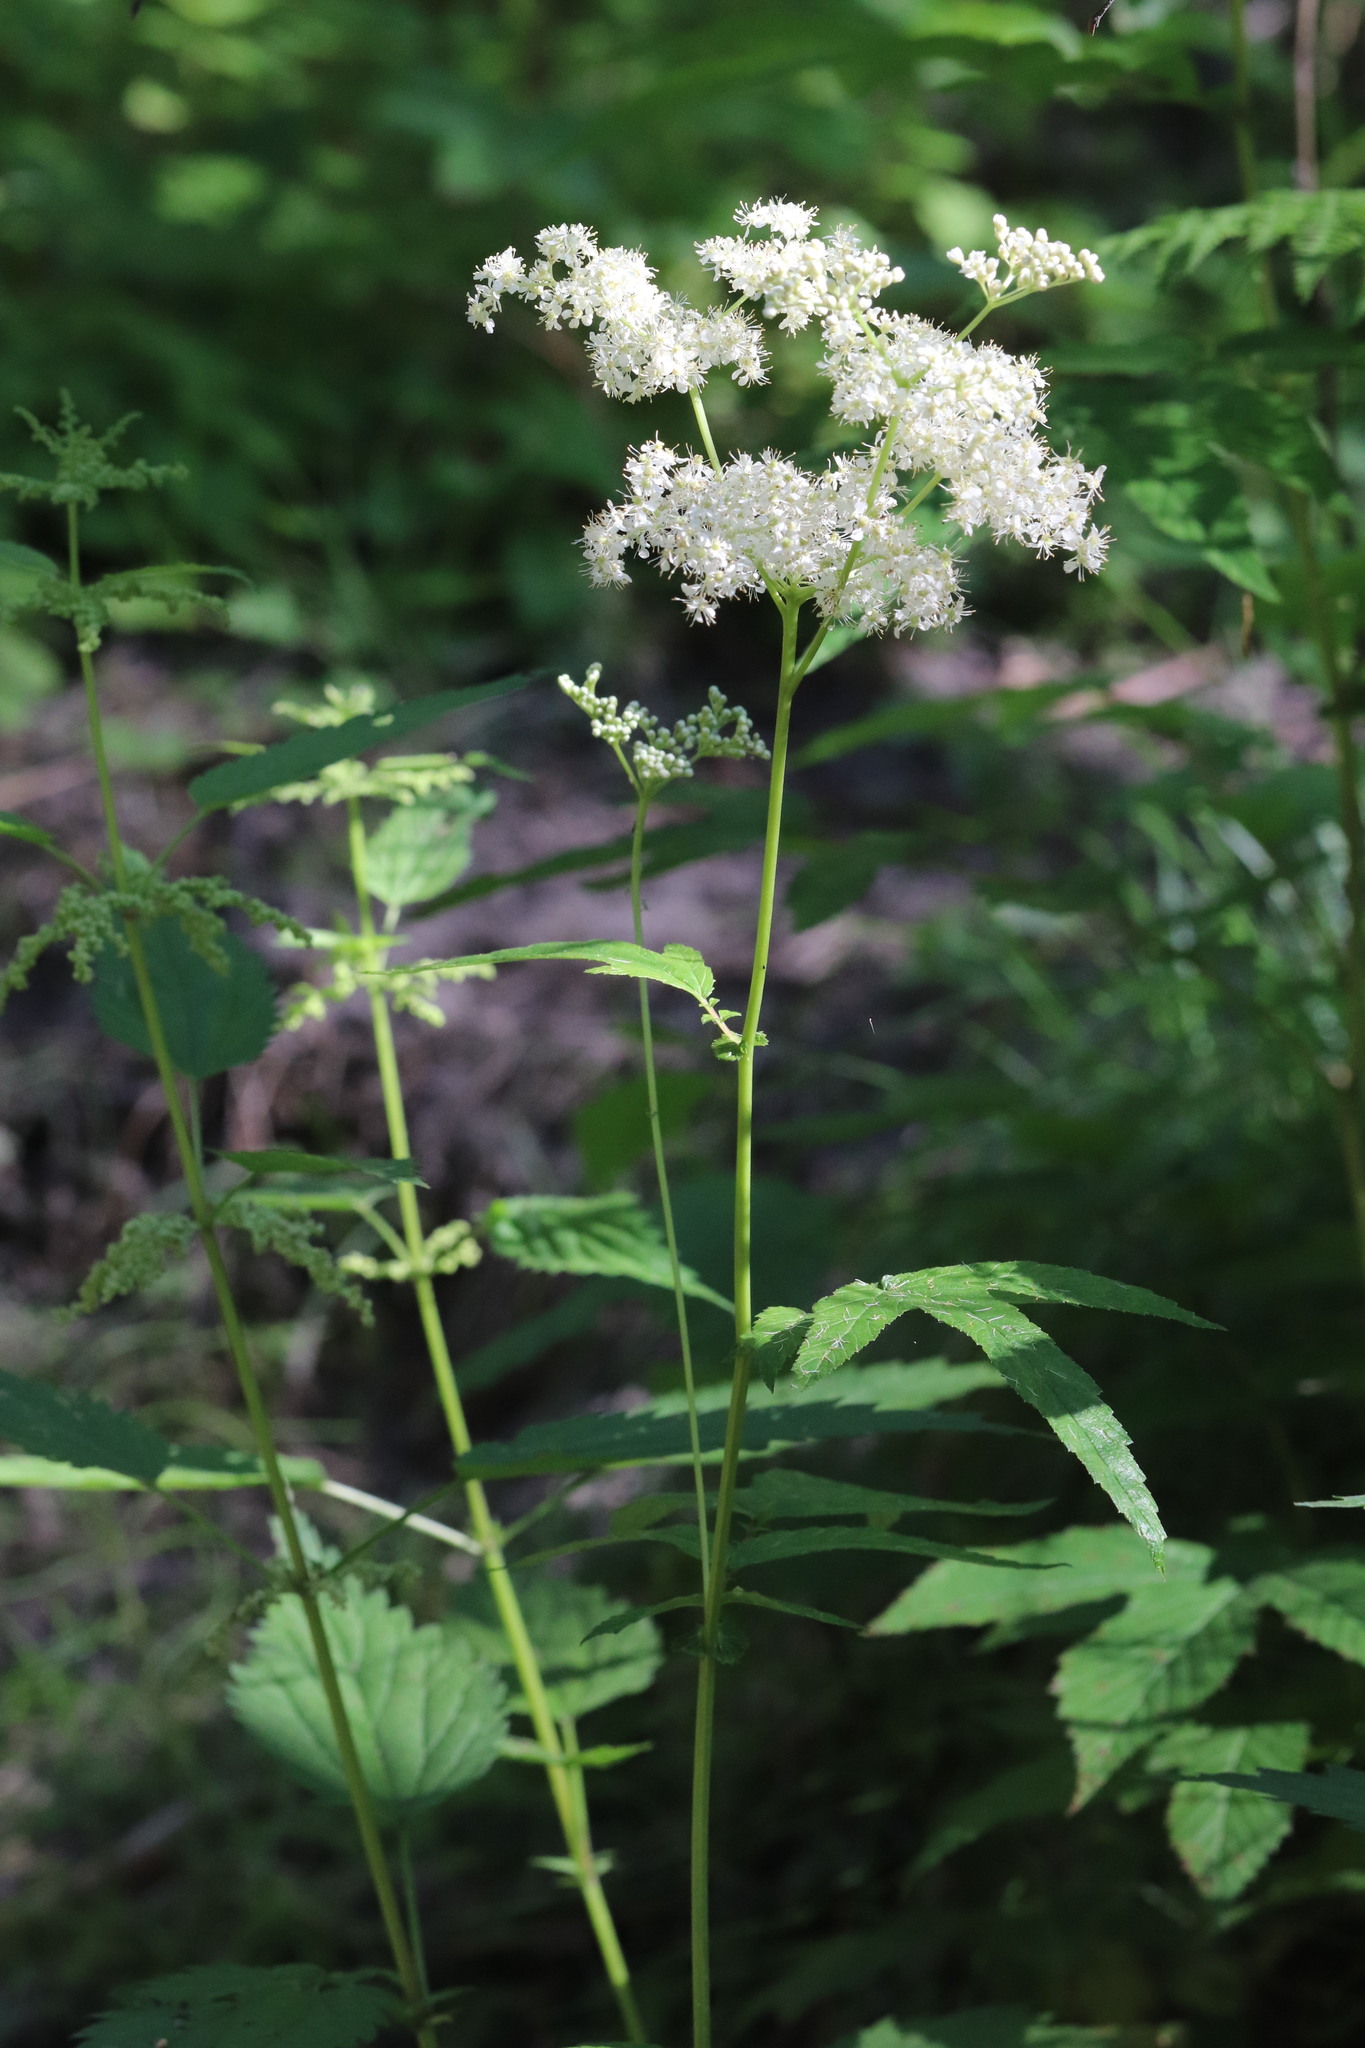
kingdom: Plantae
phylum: Tracheophyta
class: Magnoliopsida
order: Rosales
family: Rosaceae
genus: Filipendula
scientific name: Filipendula ulmaria
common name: Meadowsweet
